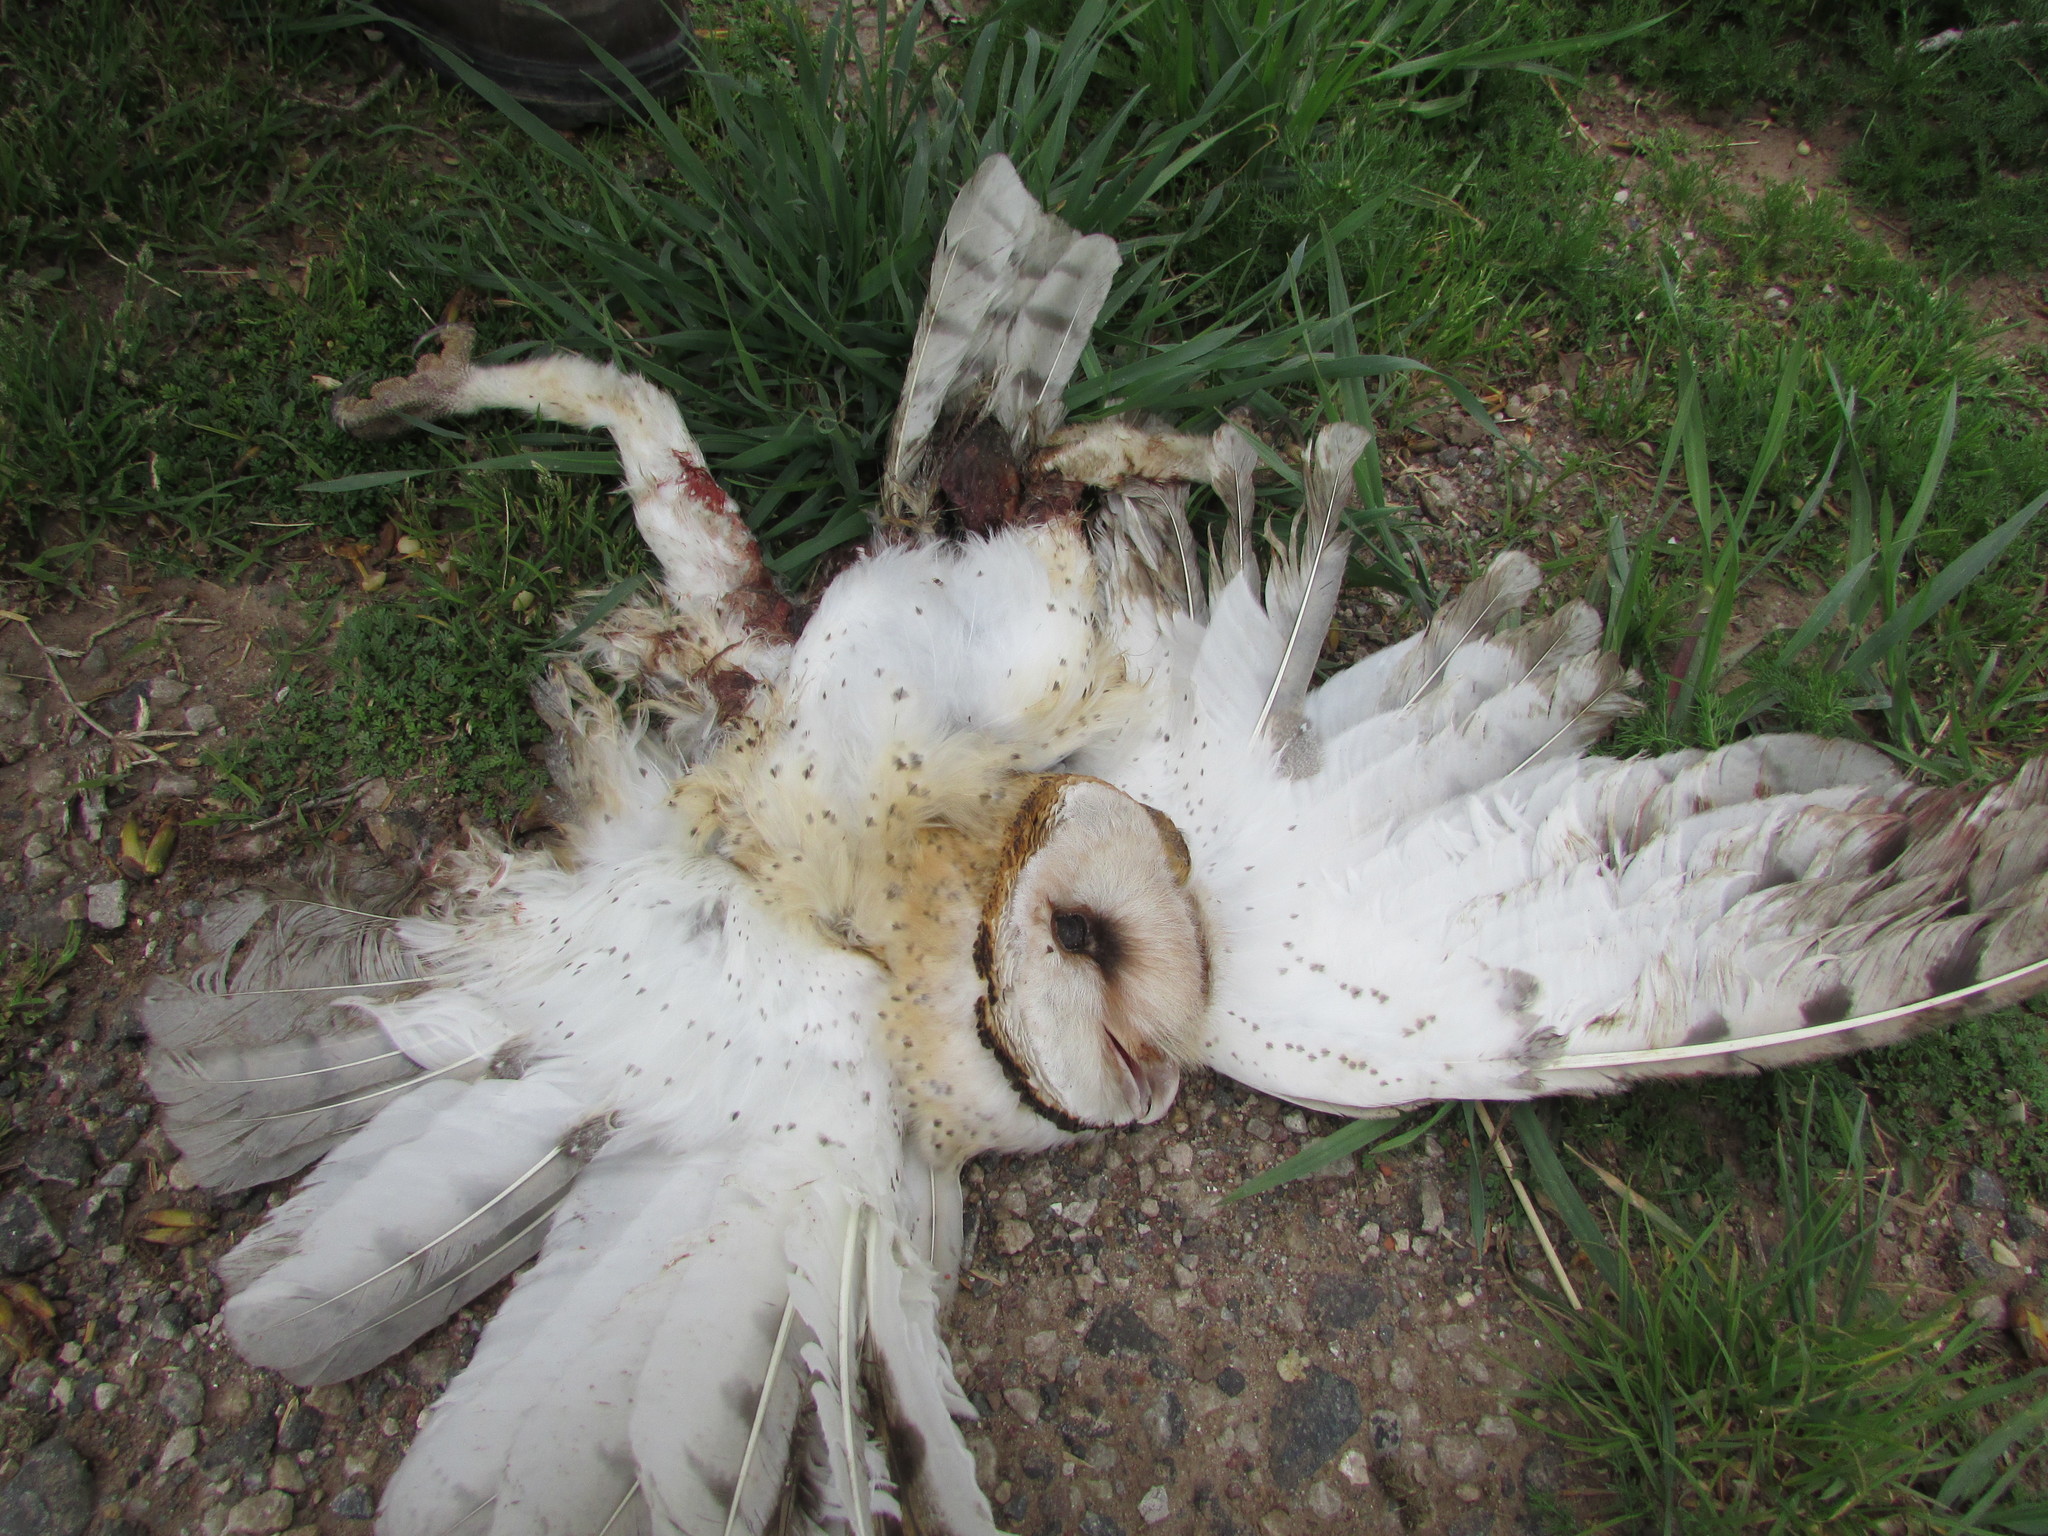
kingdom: Animalia
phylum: Chordata
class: Aves
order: Strigiformes
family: Tytonidae
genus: Tyto
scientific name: Tyto alba
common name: Barn owl
